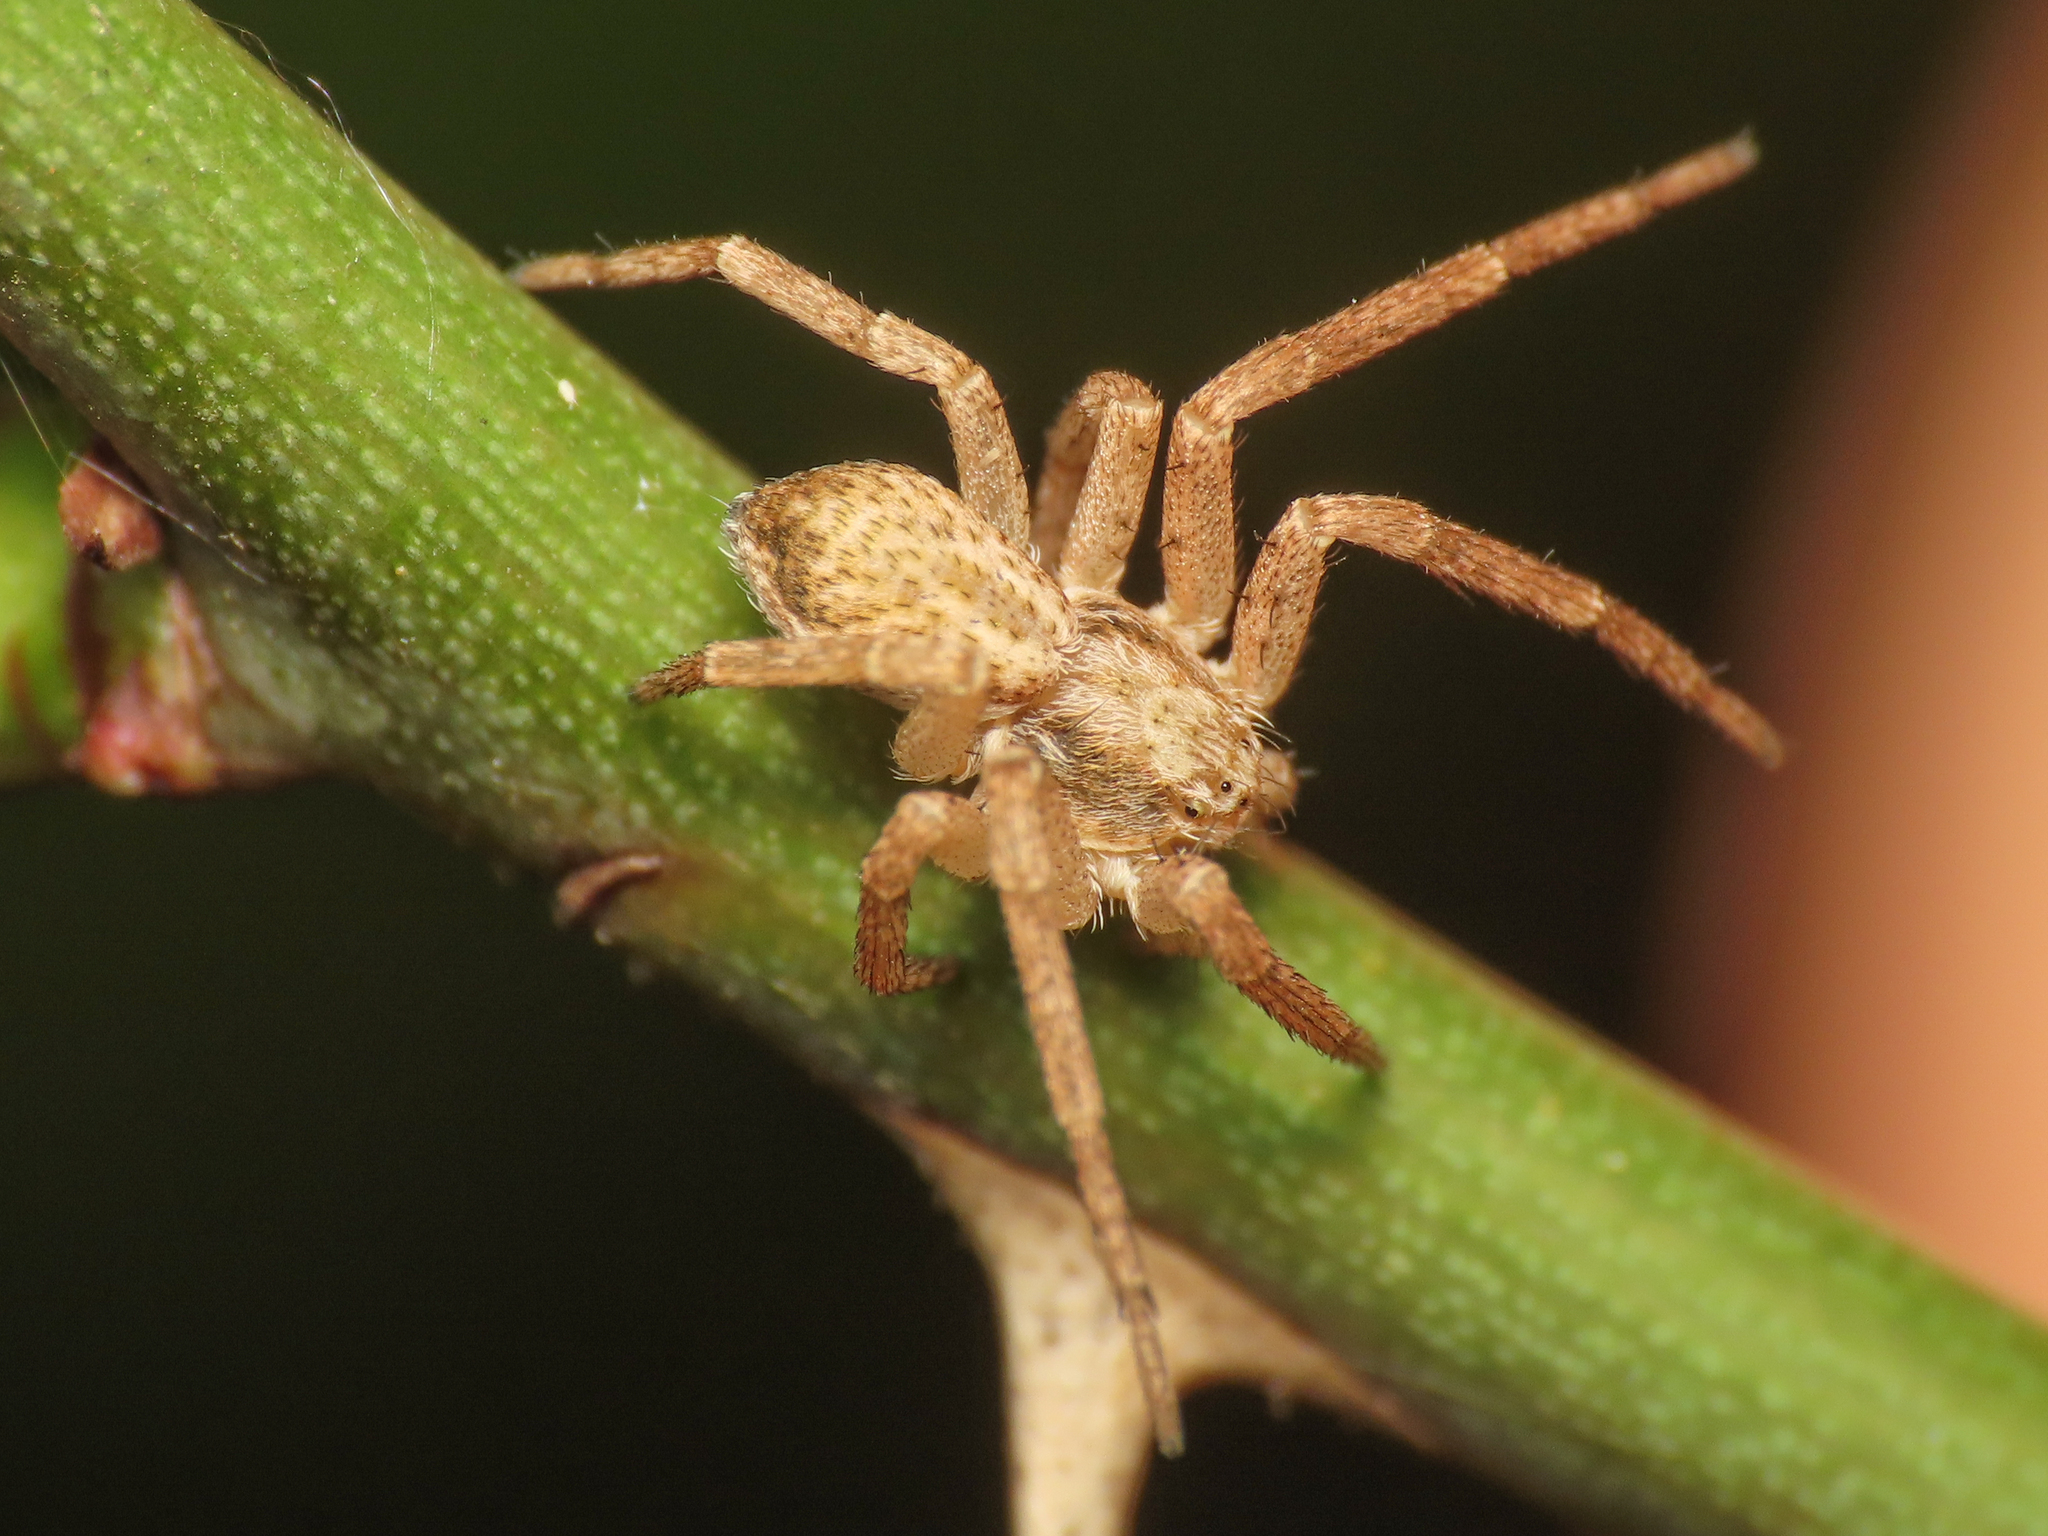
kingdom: Animalia
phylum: Arthropoda
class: Arachnida
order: Araneae
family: Philodromidae
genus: Philodromus
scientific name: Philodromus dispar
